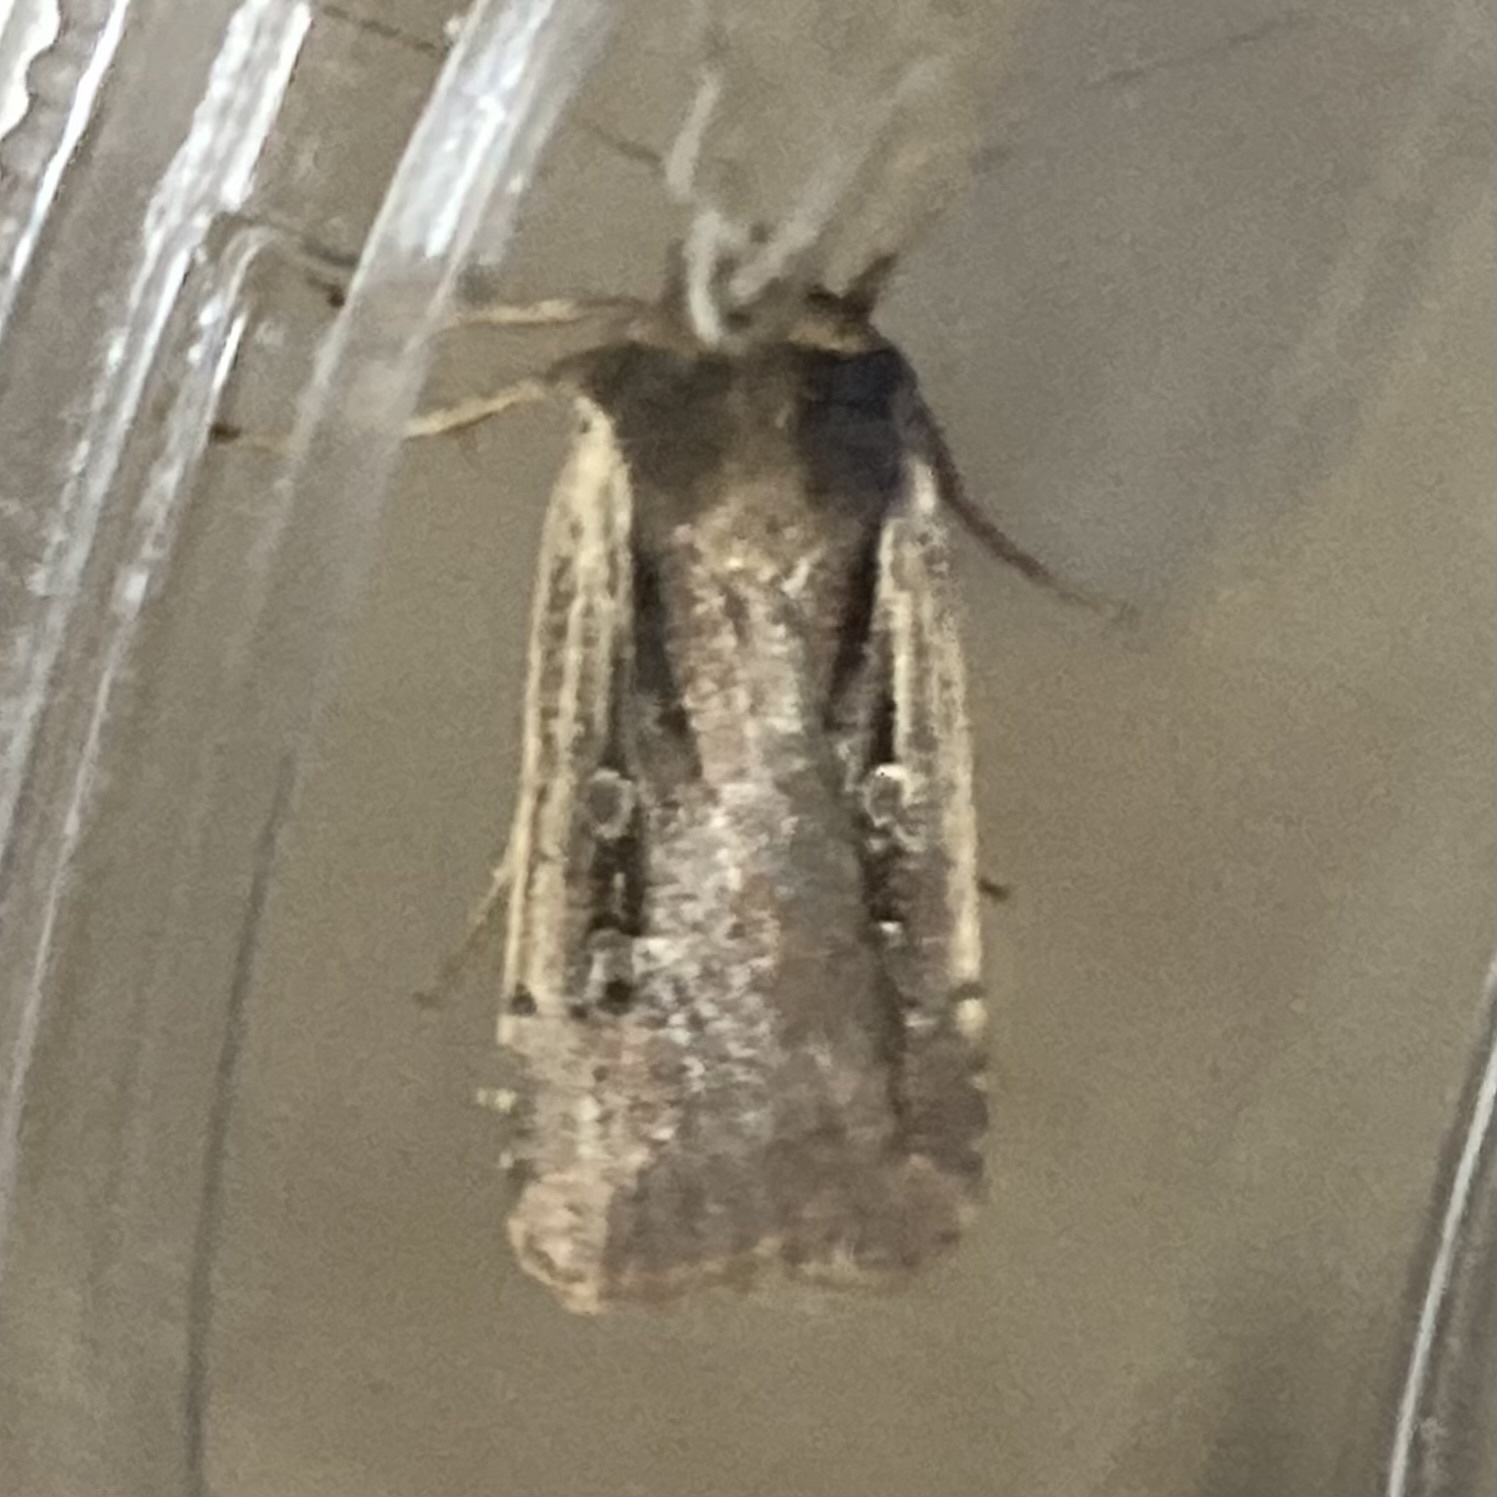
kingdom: Animalia
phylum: Arthropoda
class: Insecta
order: Lepidoptera
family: Noctuidae
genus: Ochropleura
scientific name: Ochropleura implecta
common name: Flame-shouldered dart
